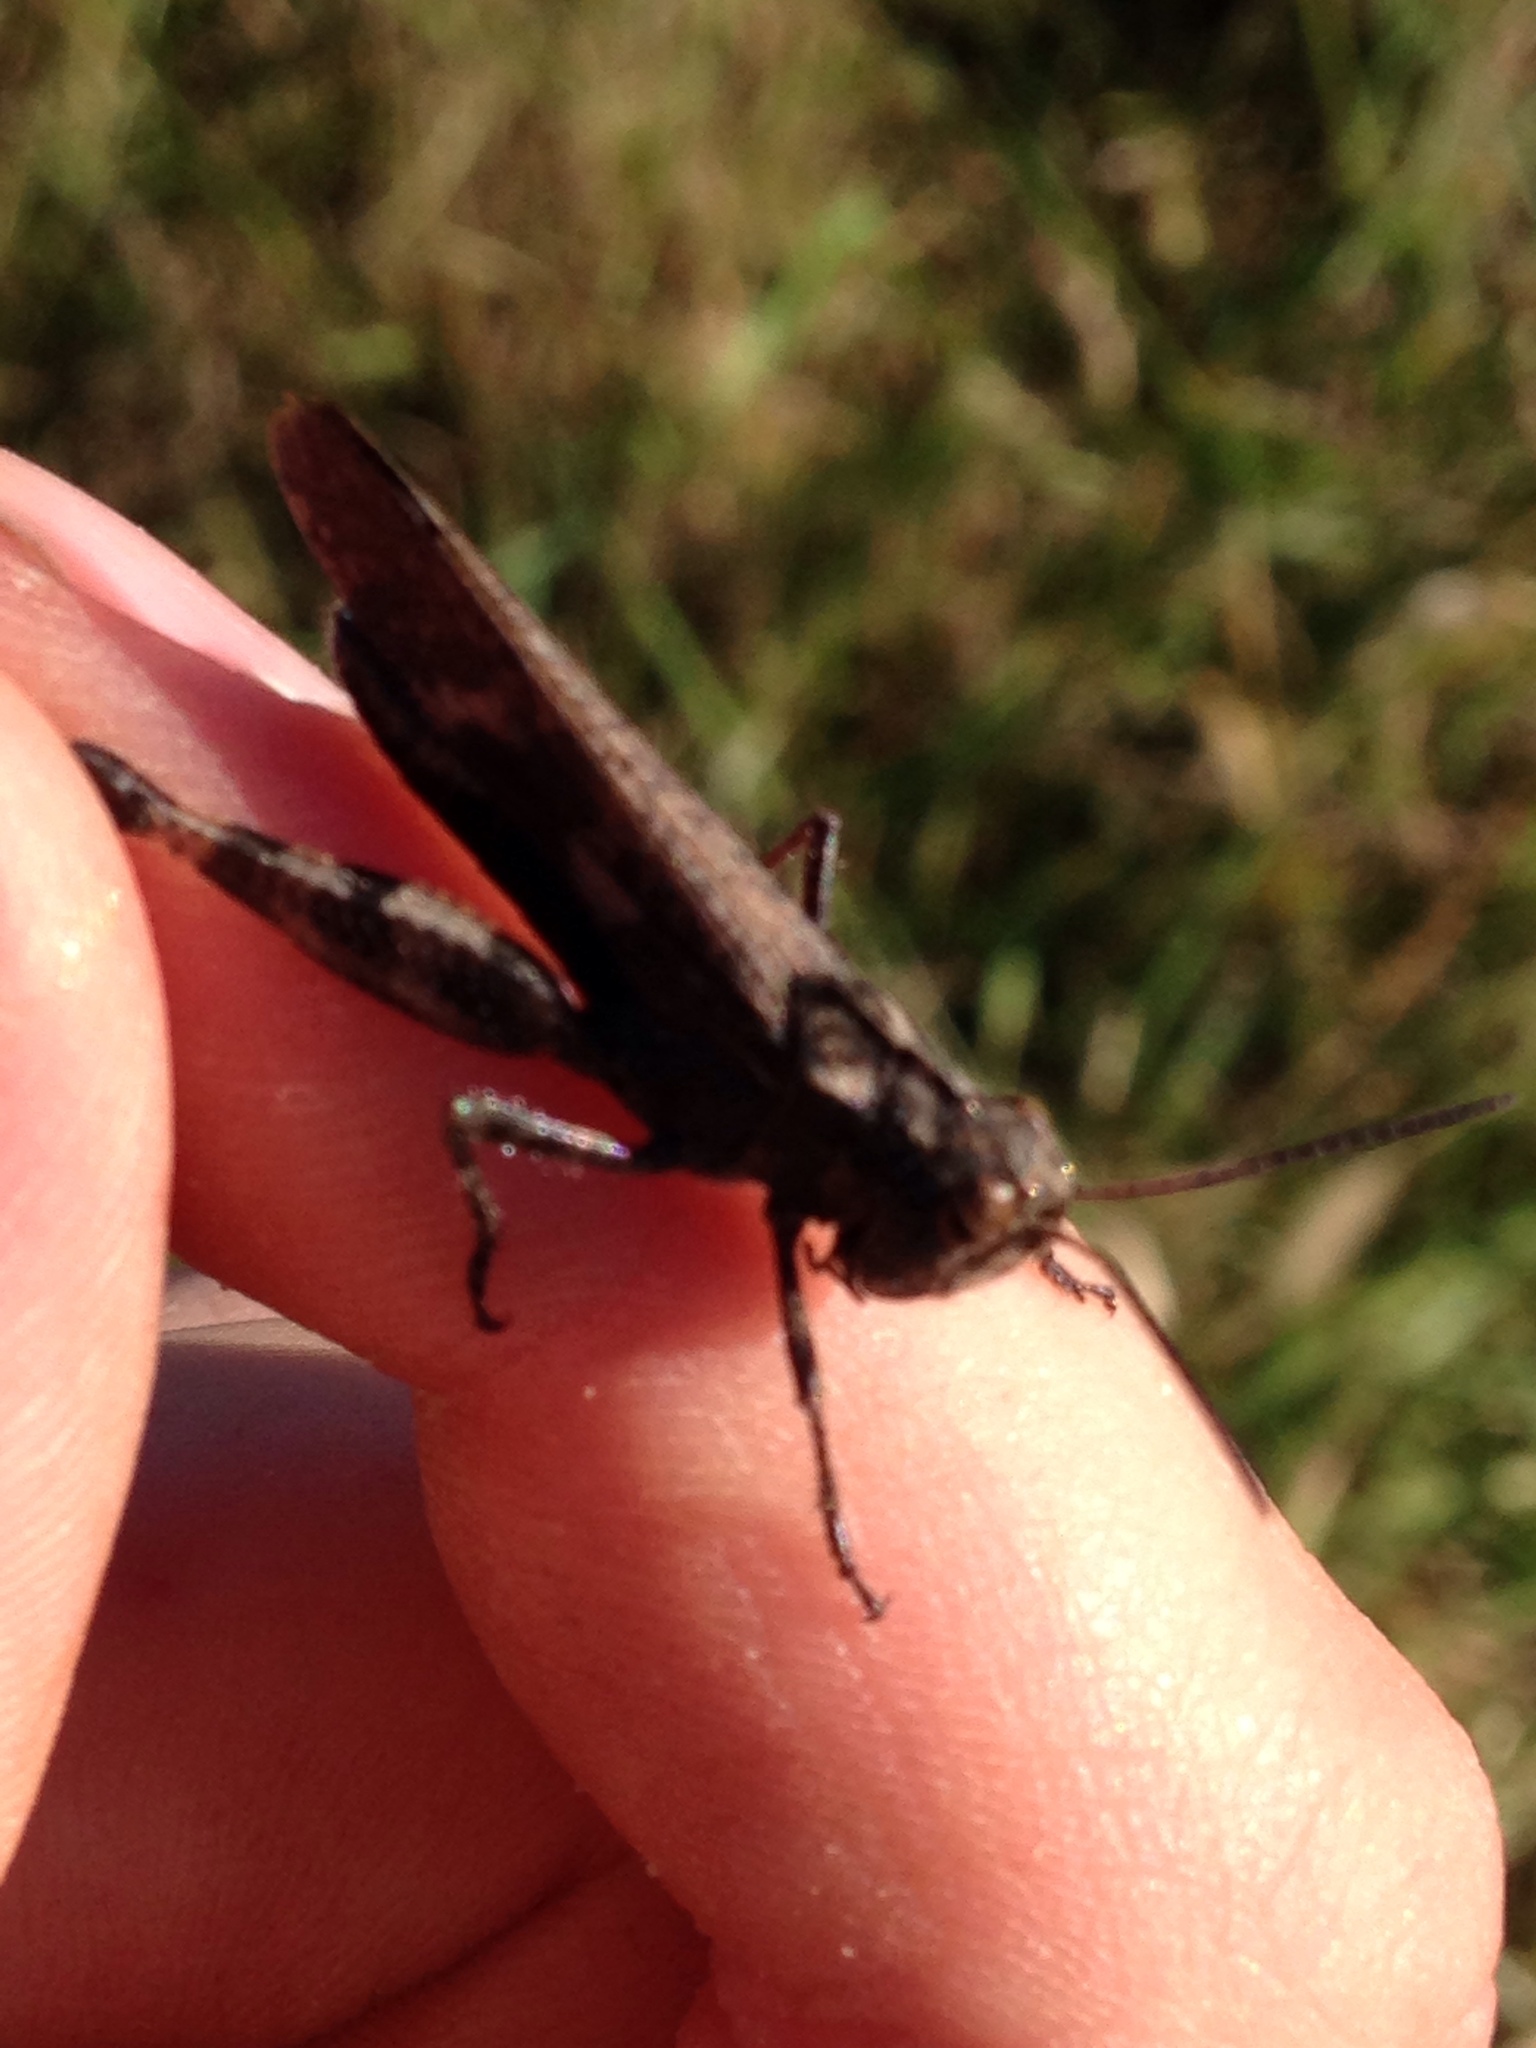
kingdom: Animalia
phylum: Arthropoda
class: Insecta
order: Orthoptera
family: Acrididae
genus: Encoptolophus
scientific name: Encoptolophus sordidus
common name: Dusky grasshopper
